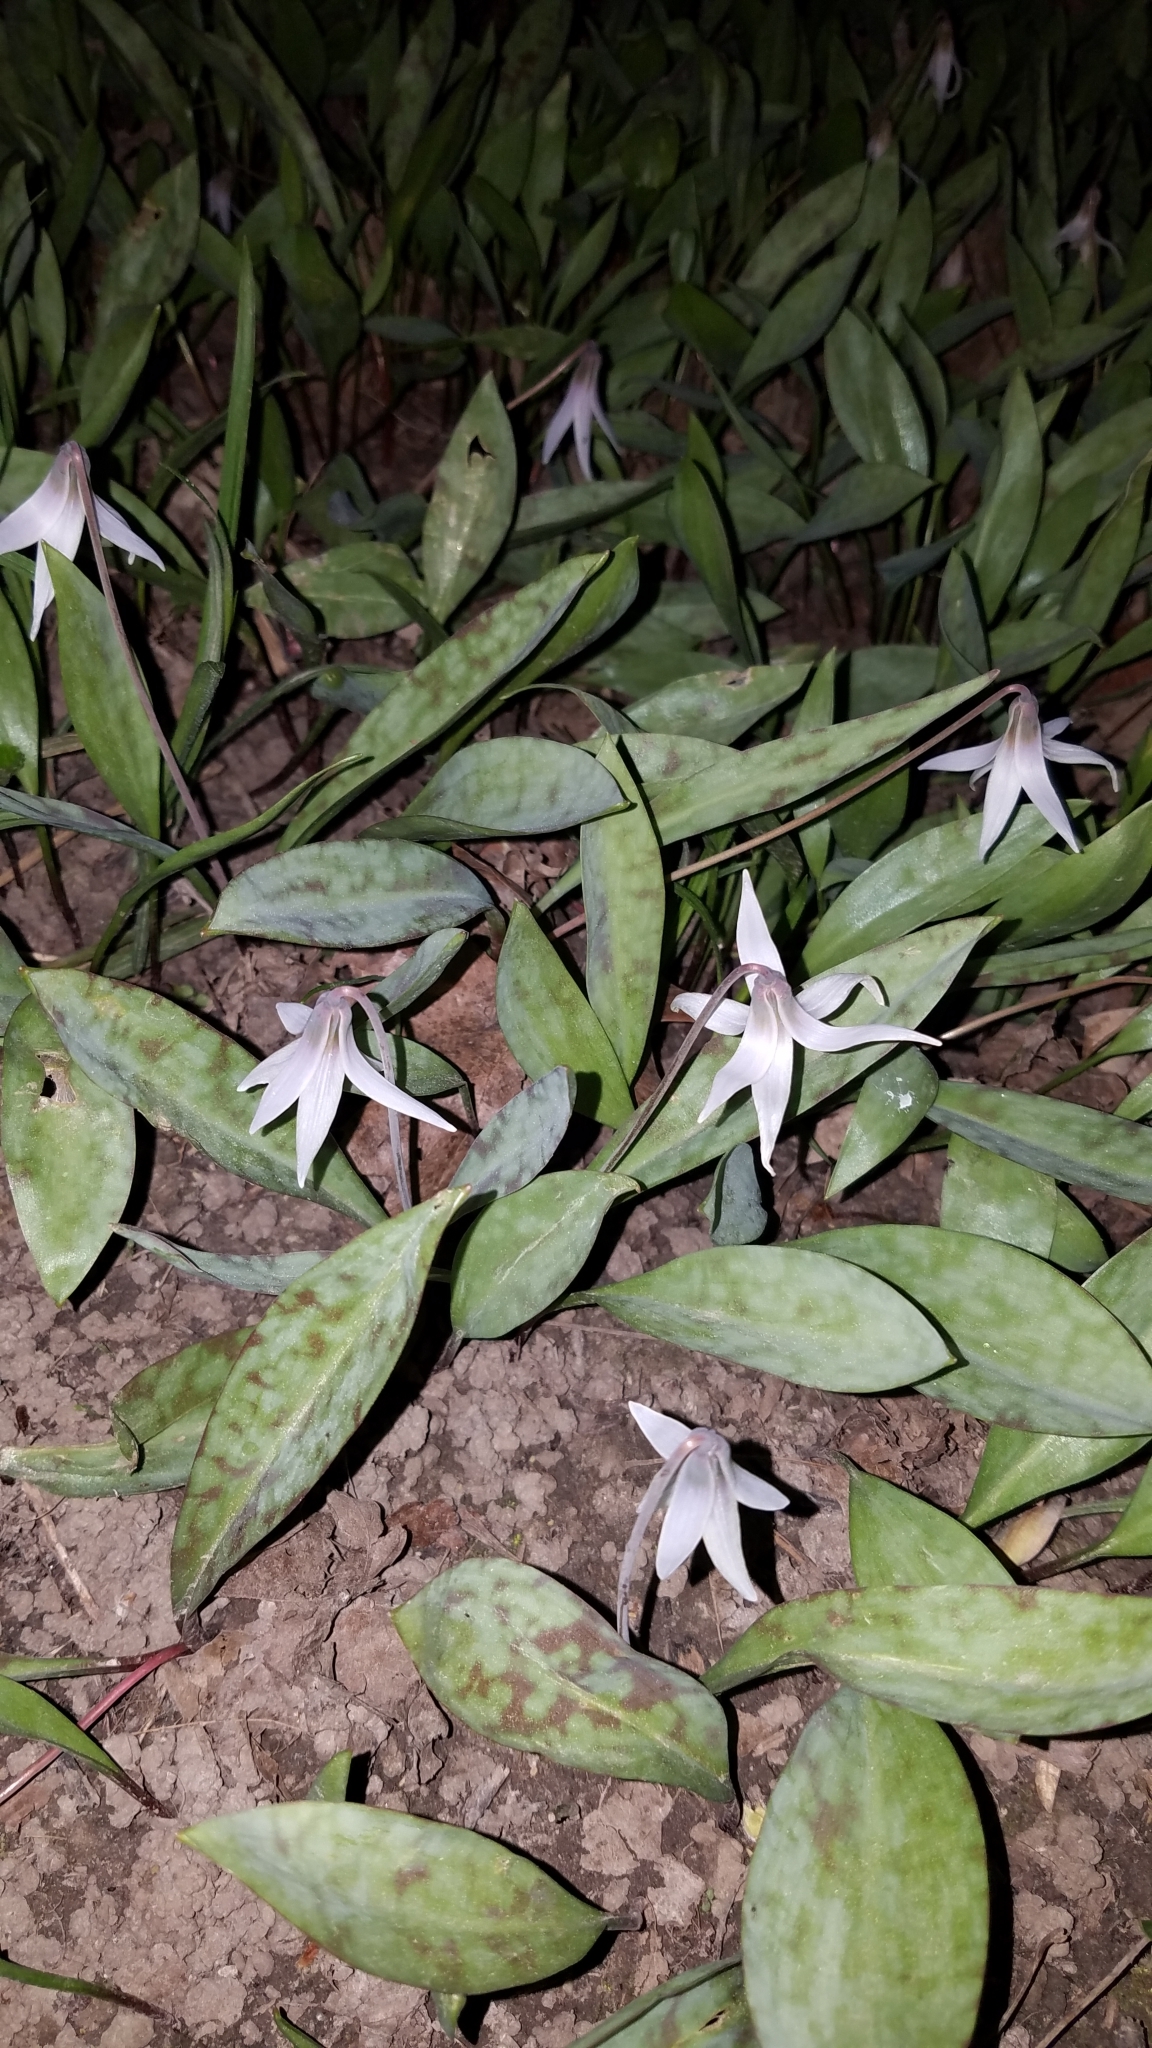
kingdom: Plantae
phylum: Tracheophyta
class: Liliopsida
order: Liliales
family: Liliaceae
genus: Erythronium
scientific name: Erythronium albidum
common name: White trout-lily
